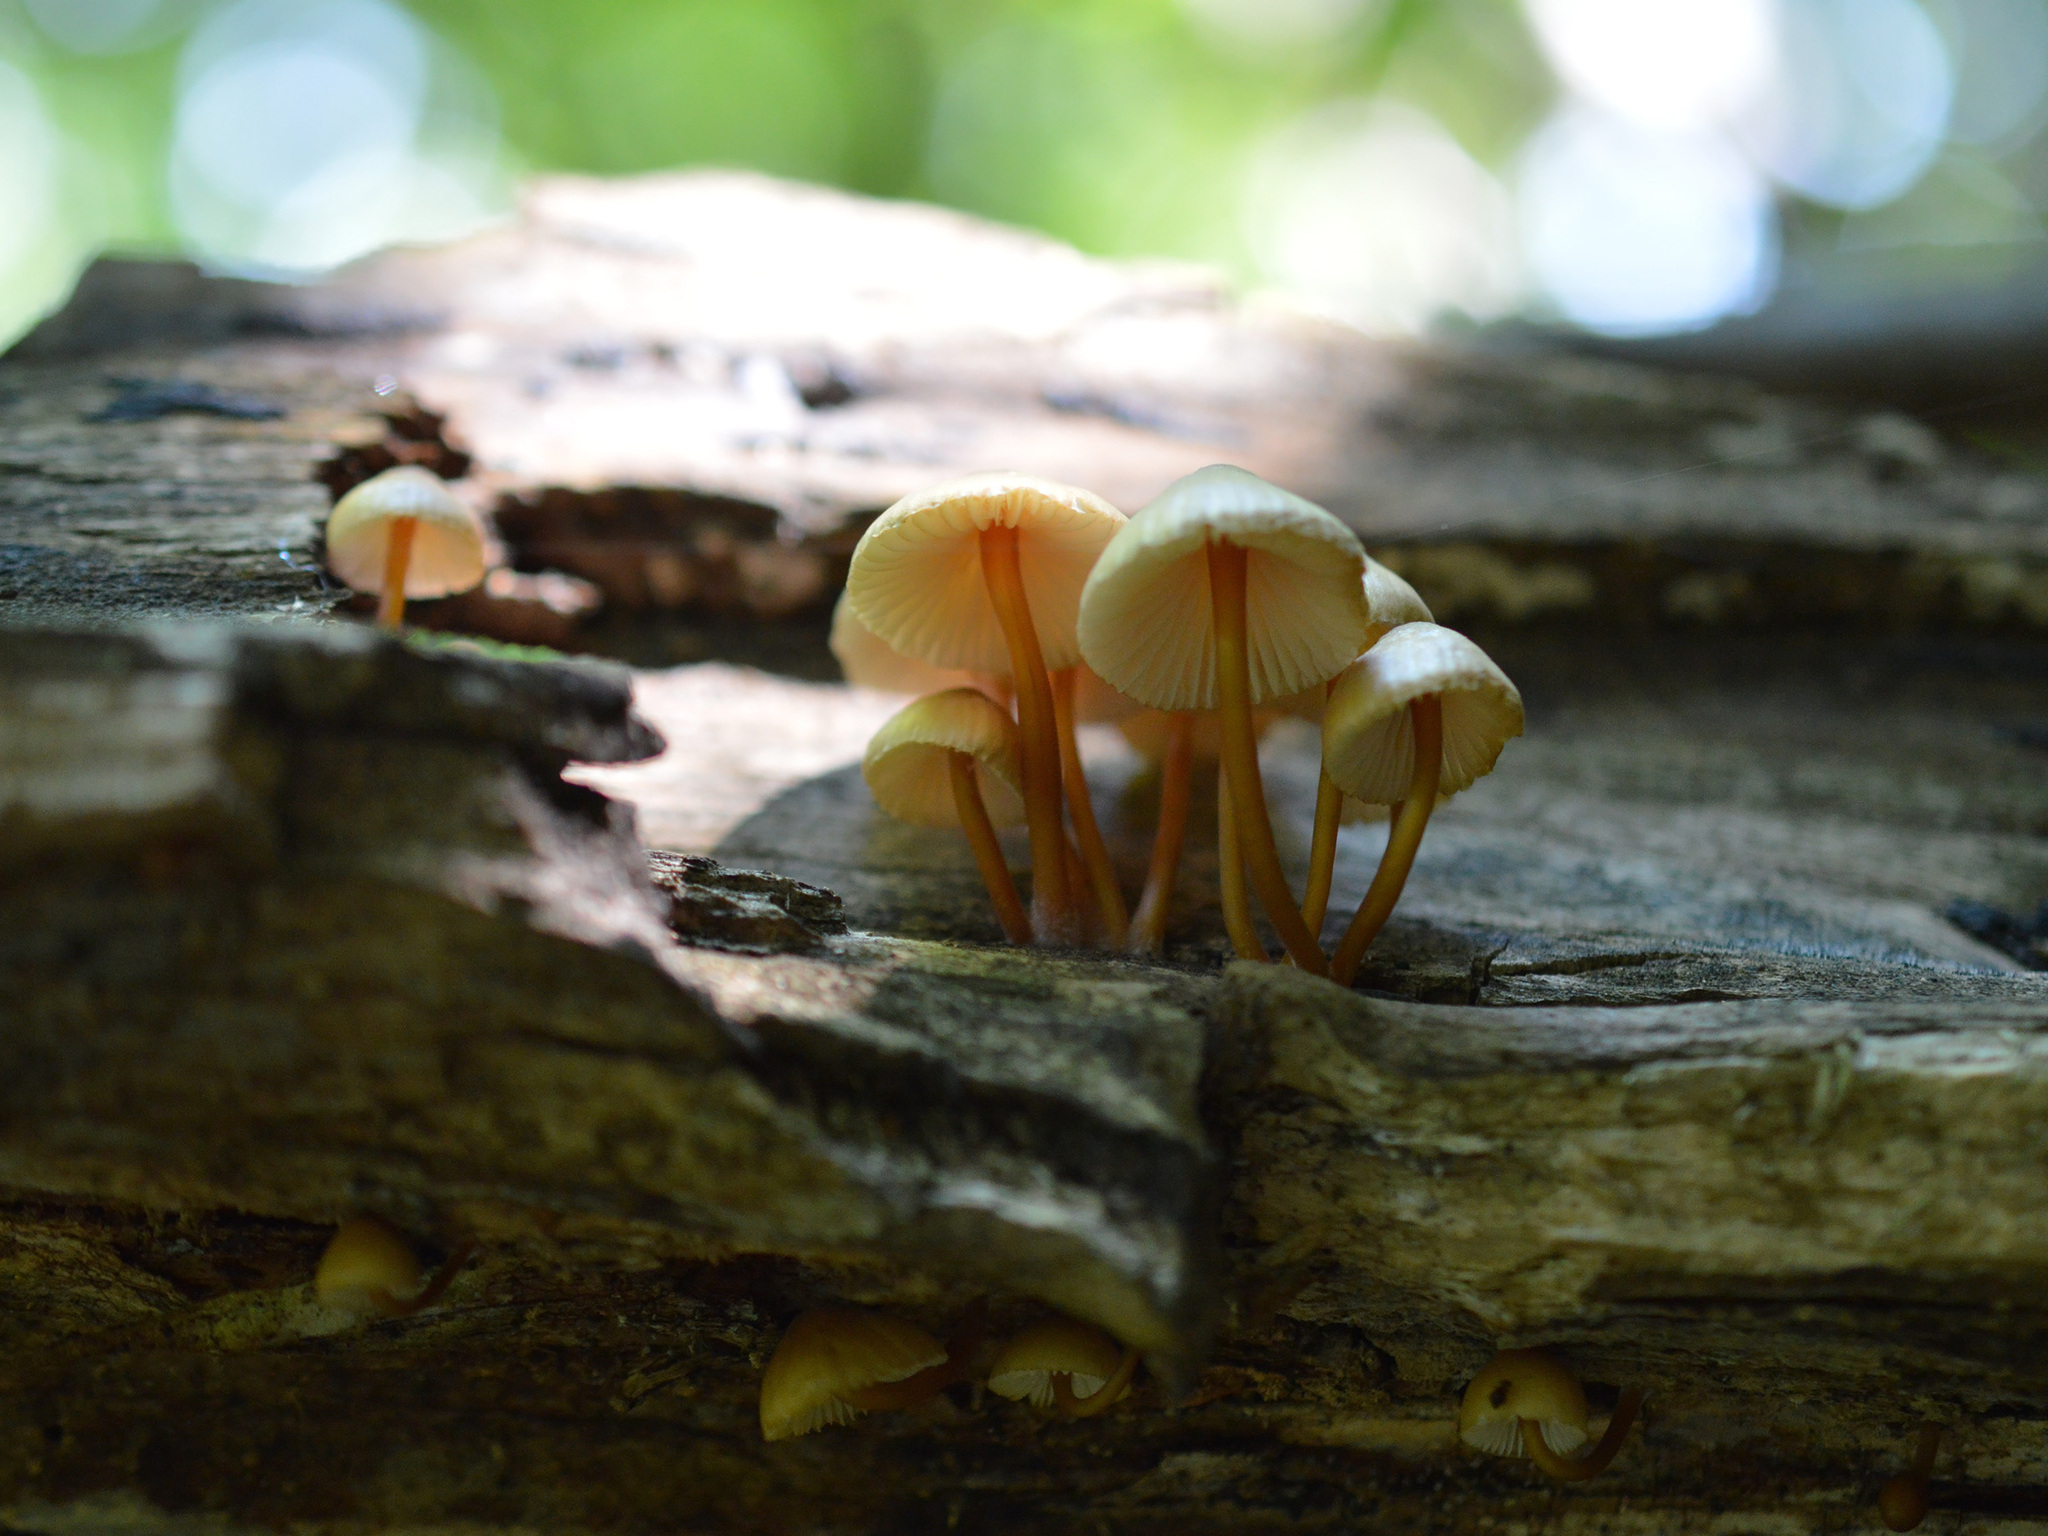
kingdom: Fungi
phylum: Basidiomycota
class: Agaricomycetes
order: Agaricales
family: Mycenaceae
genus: Mycena
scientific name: Mycena renati
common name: Beautiful bonnet
